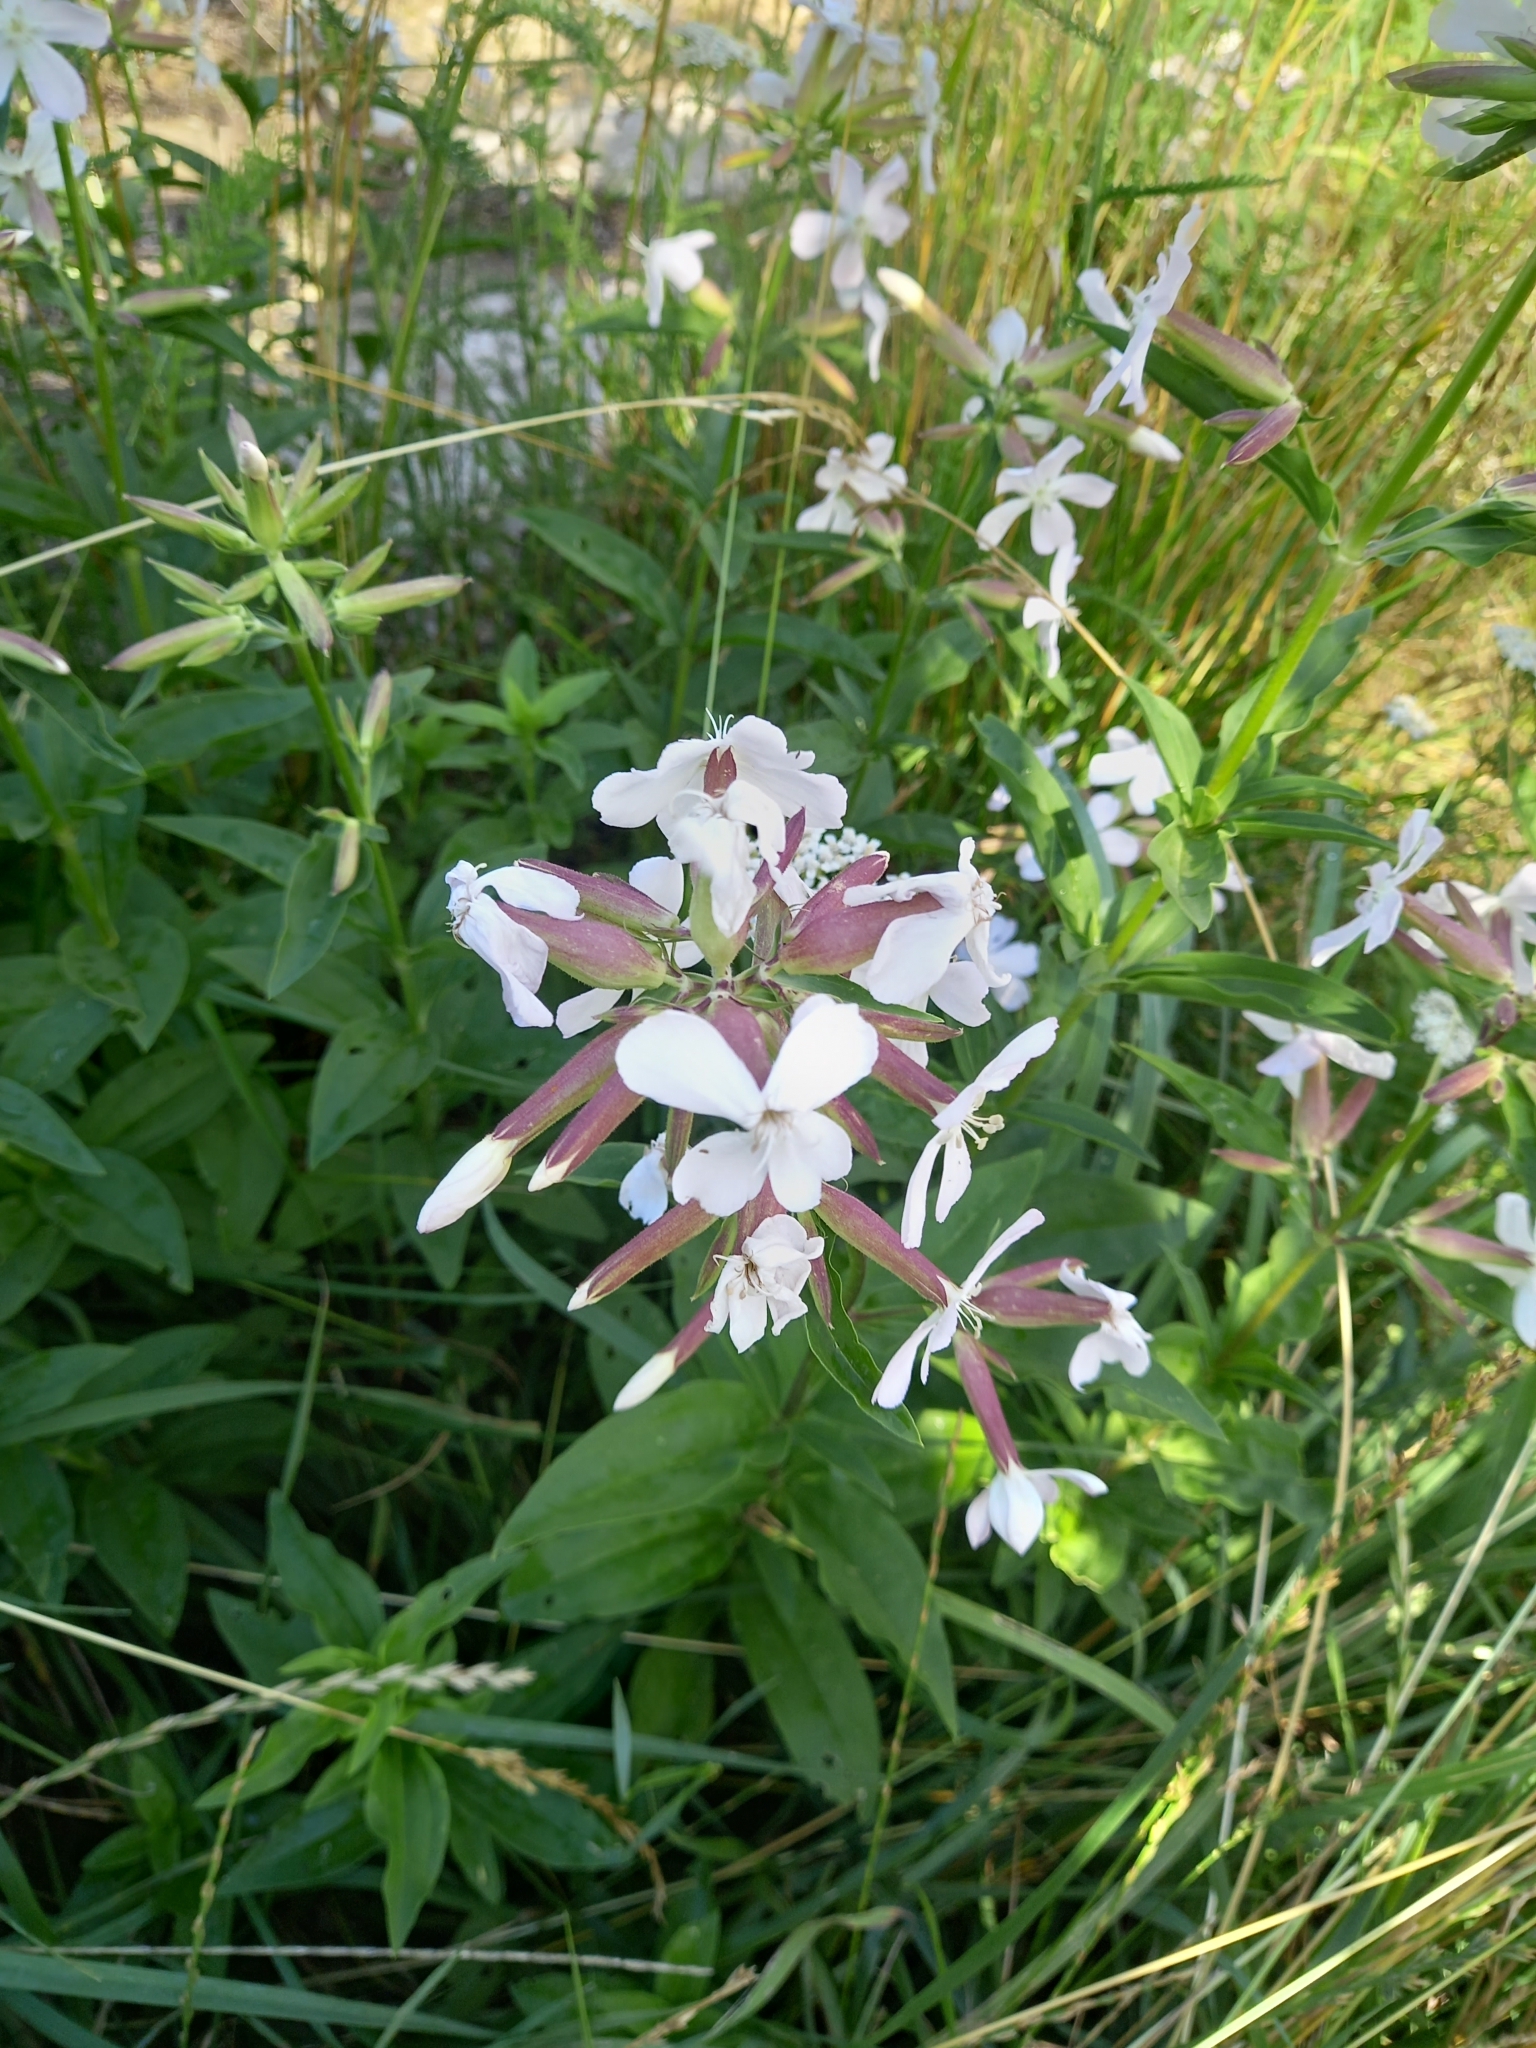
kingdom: Plantae
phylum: Tracheophyta
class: Magnoliopsida
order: Caryophyllales
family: Caryophyllaceae
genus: Saponaria
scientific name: Saponaria officinalis
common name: Soapwort
